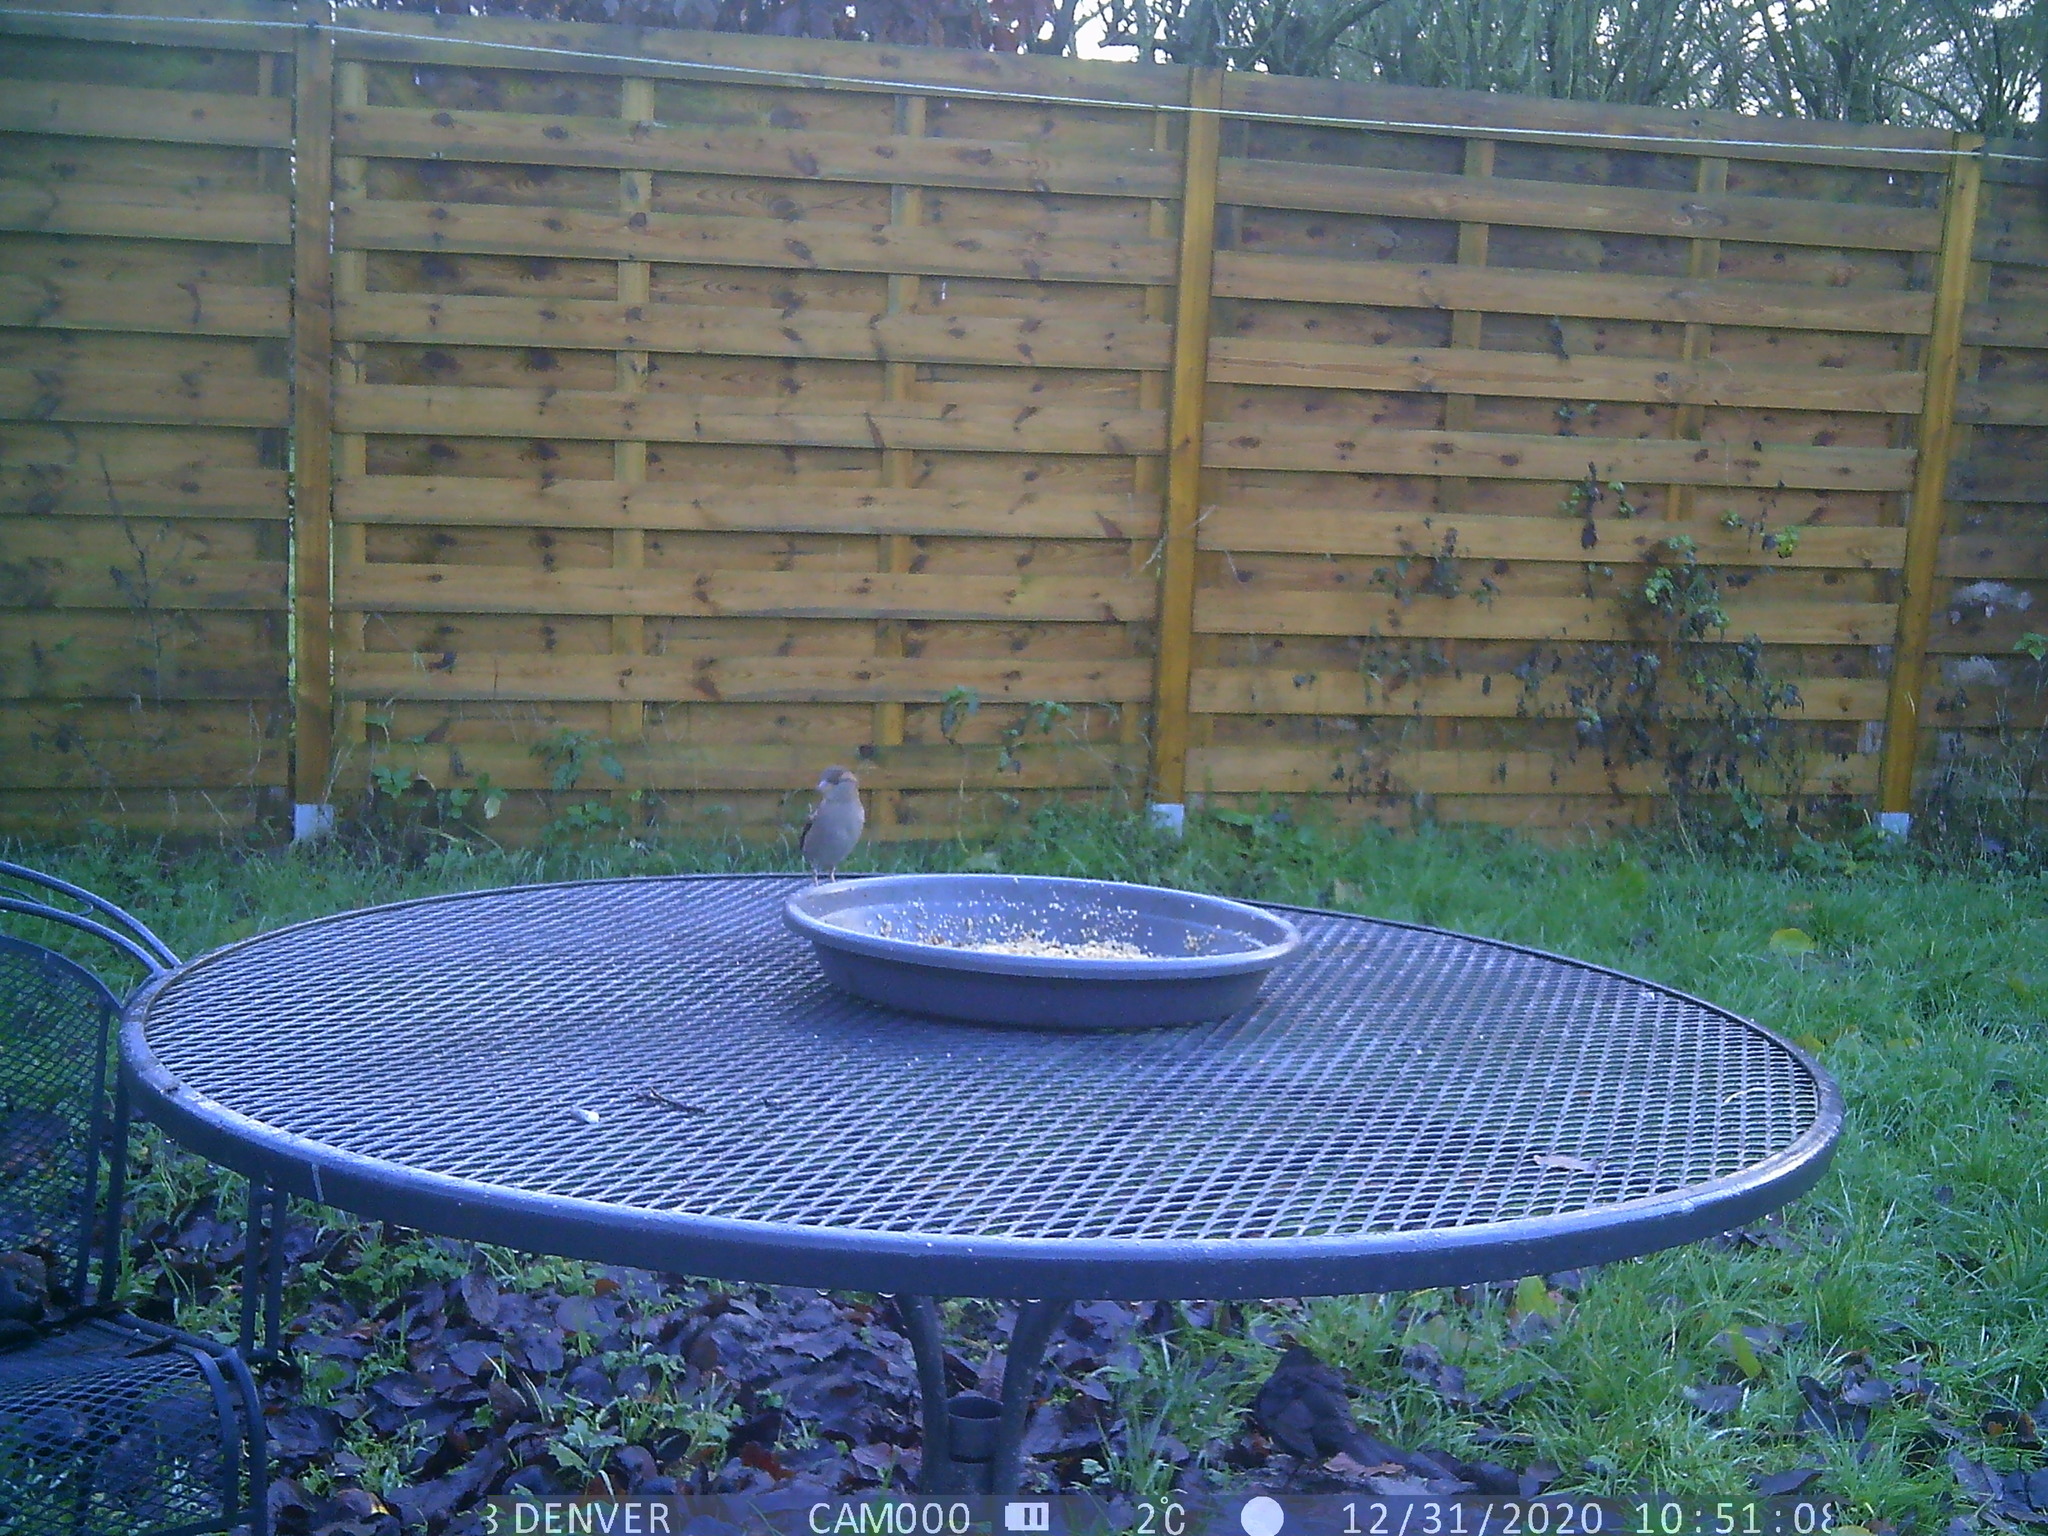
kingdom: Animalia
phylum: Chordata
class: Aves
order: Passeriformes
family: Passeridae
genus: Passer
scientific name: Passer domesticus
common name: House sparrow
